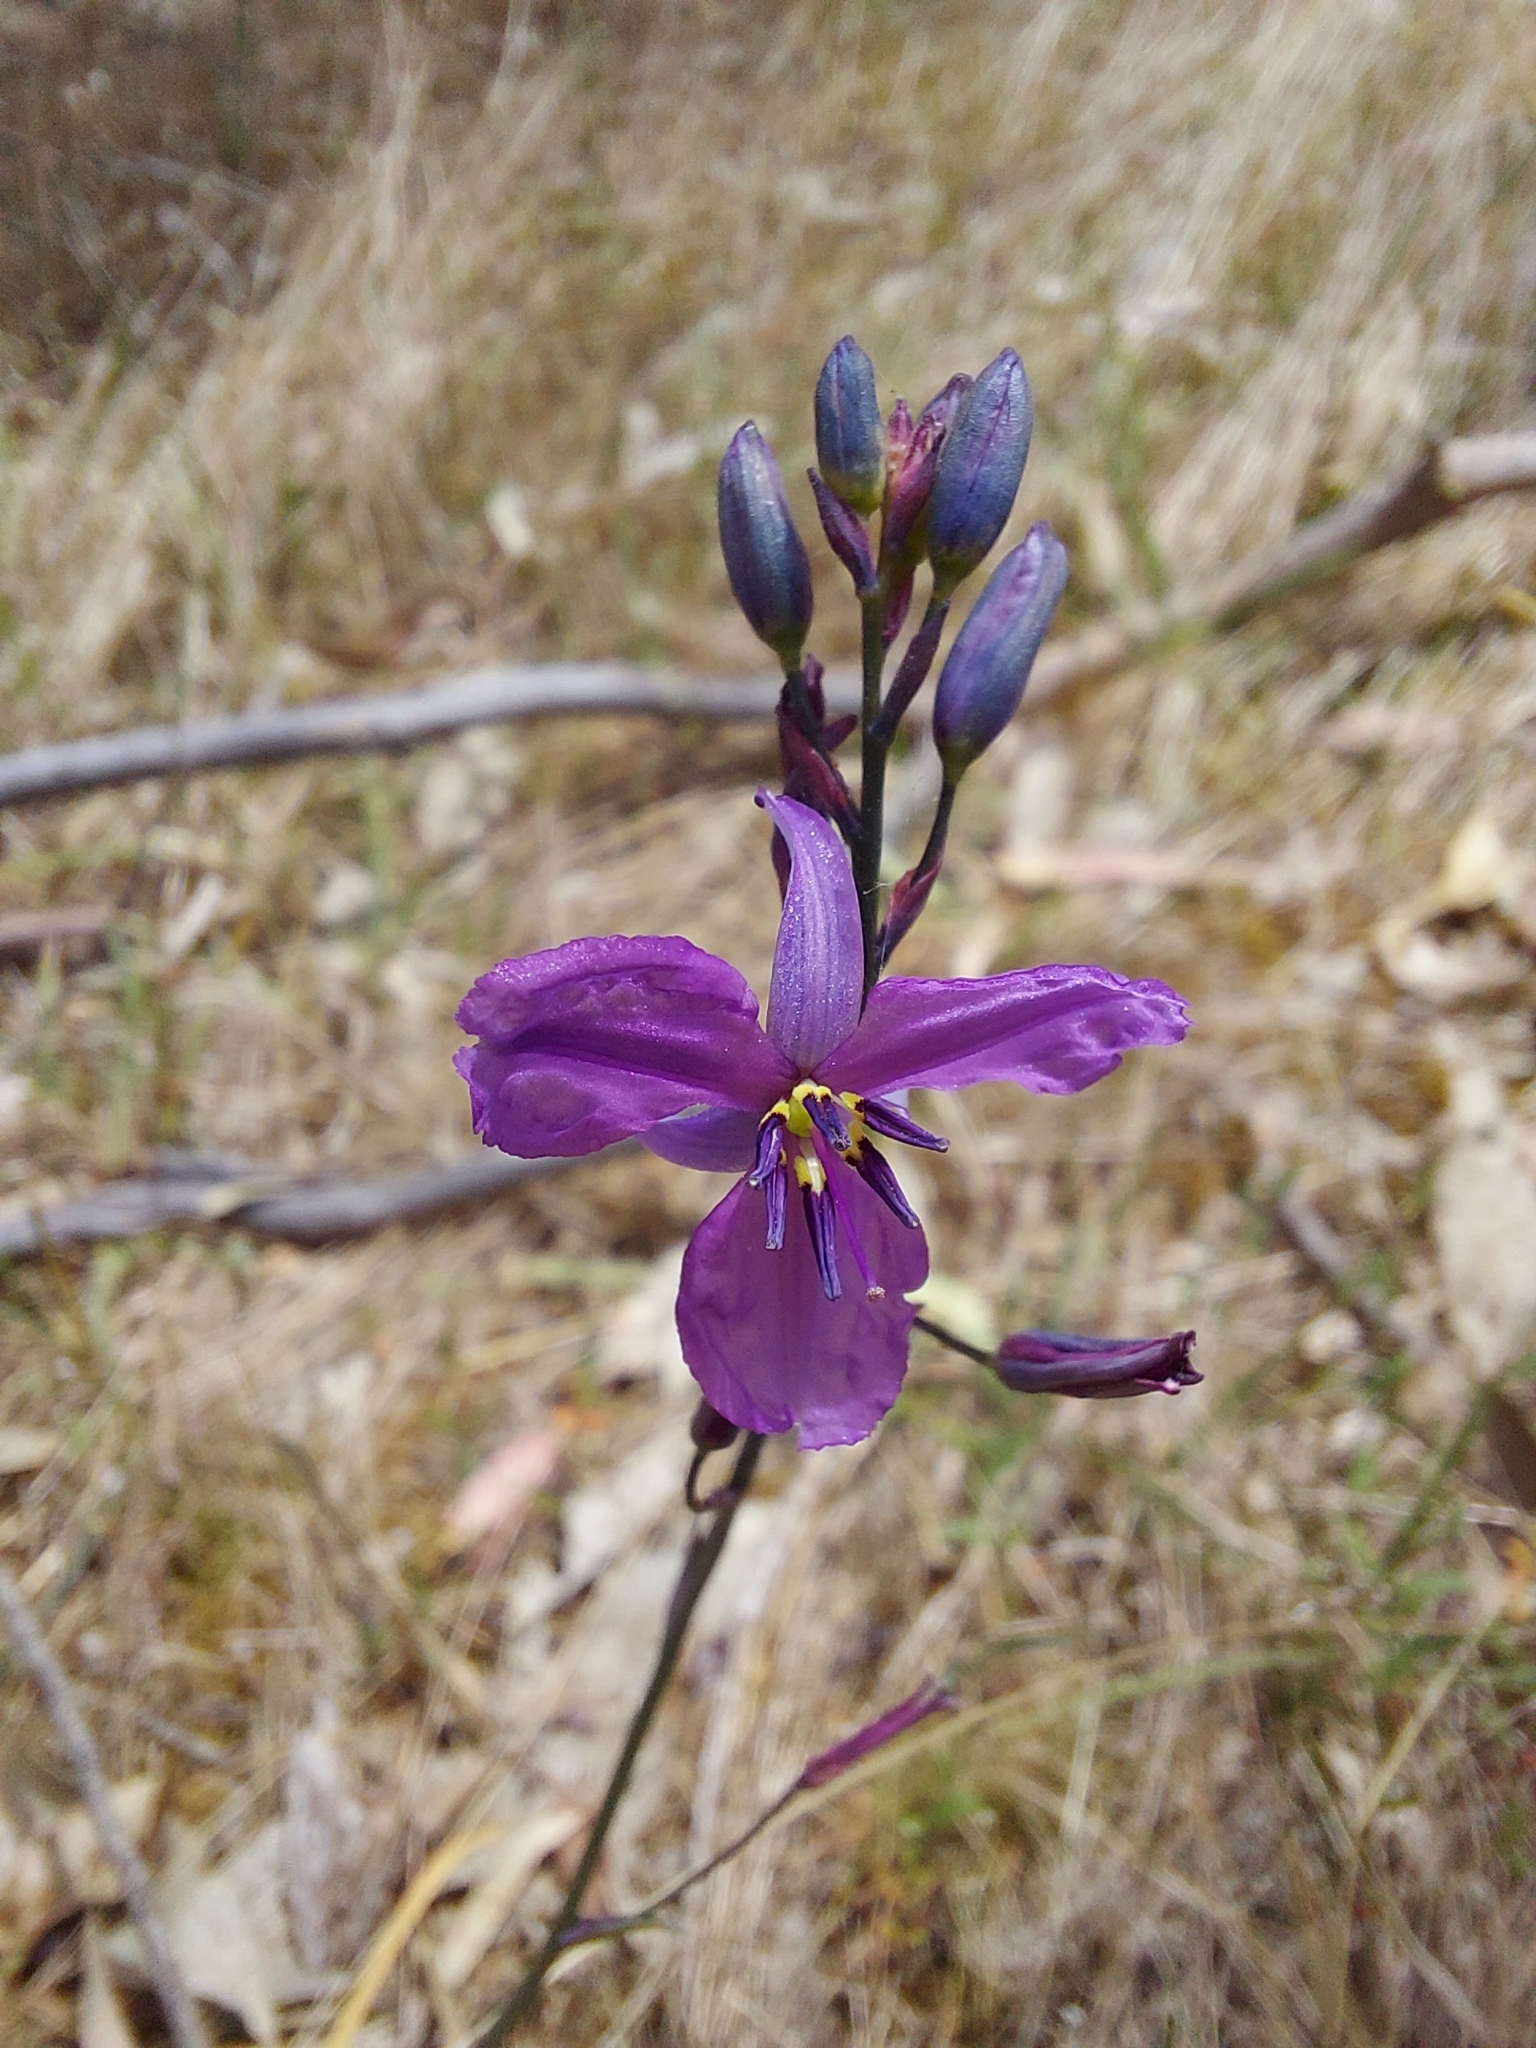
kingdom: Plantae
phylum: Tracheophyta
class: Liliopsida
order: Asparagales
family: Asparagaceae
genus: Arthropodium
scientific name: Arthropodium strictum
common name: Chocolate-lily
